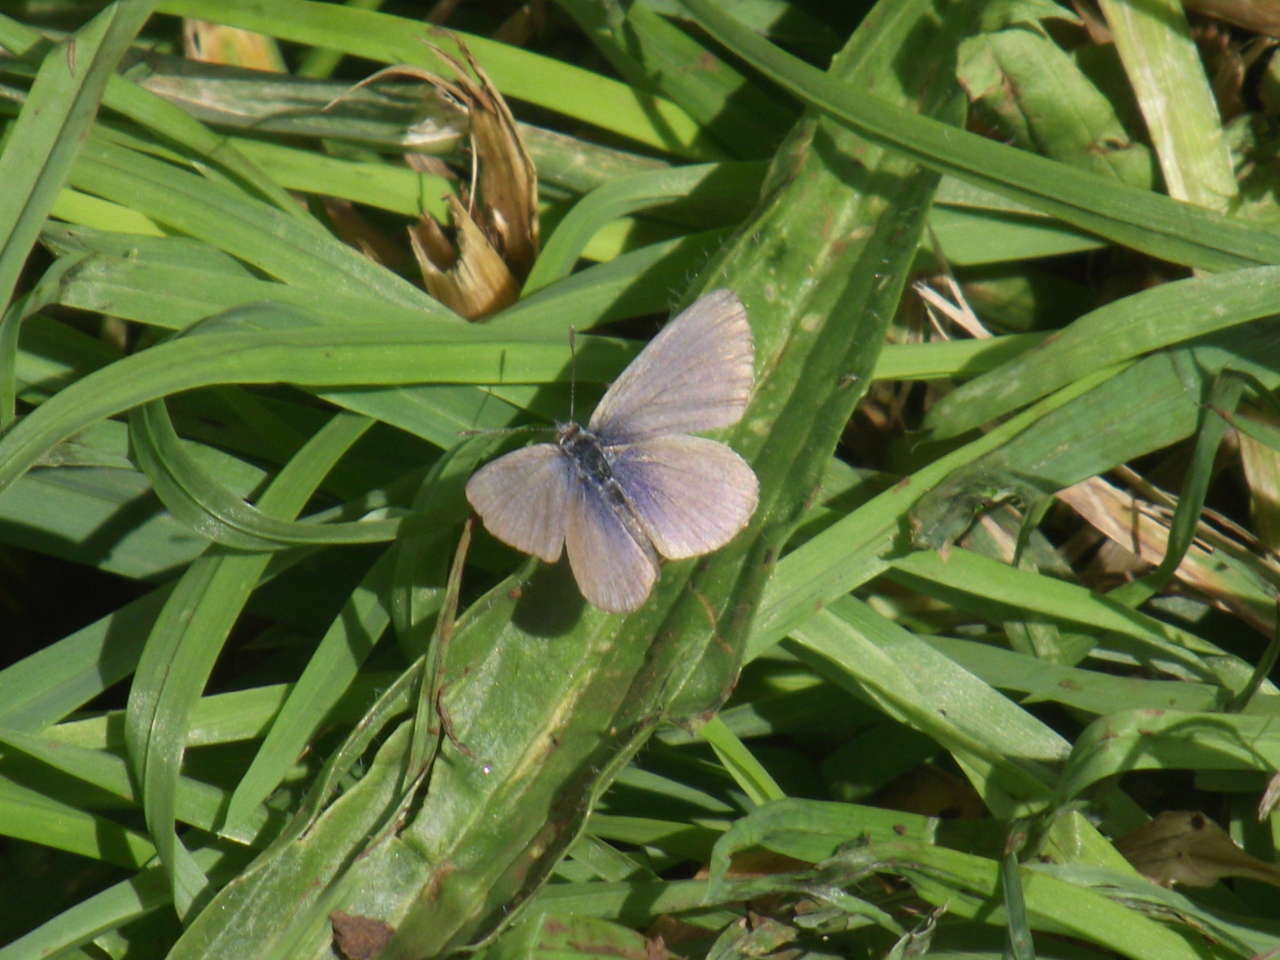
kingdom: Animalia
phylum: Arthropoda
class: Insecta
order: Lepidoptera
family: Lycaenidae
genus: Zizina
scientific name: Zizina labradus
